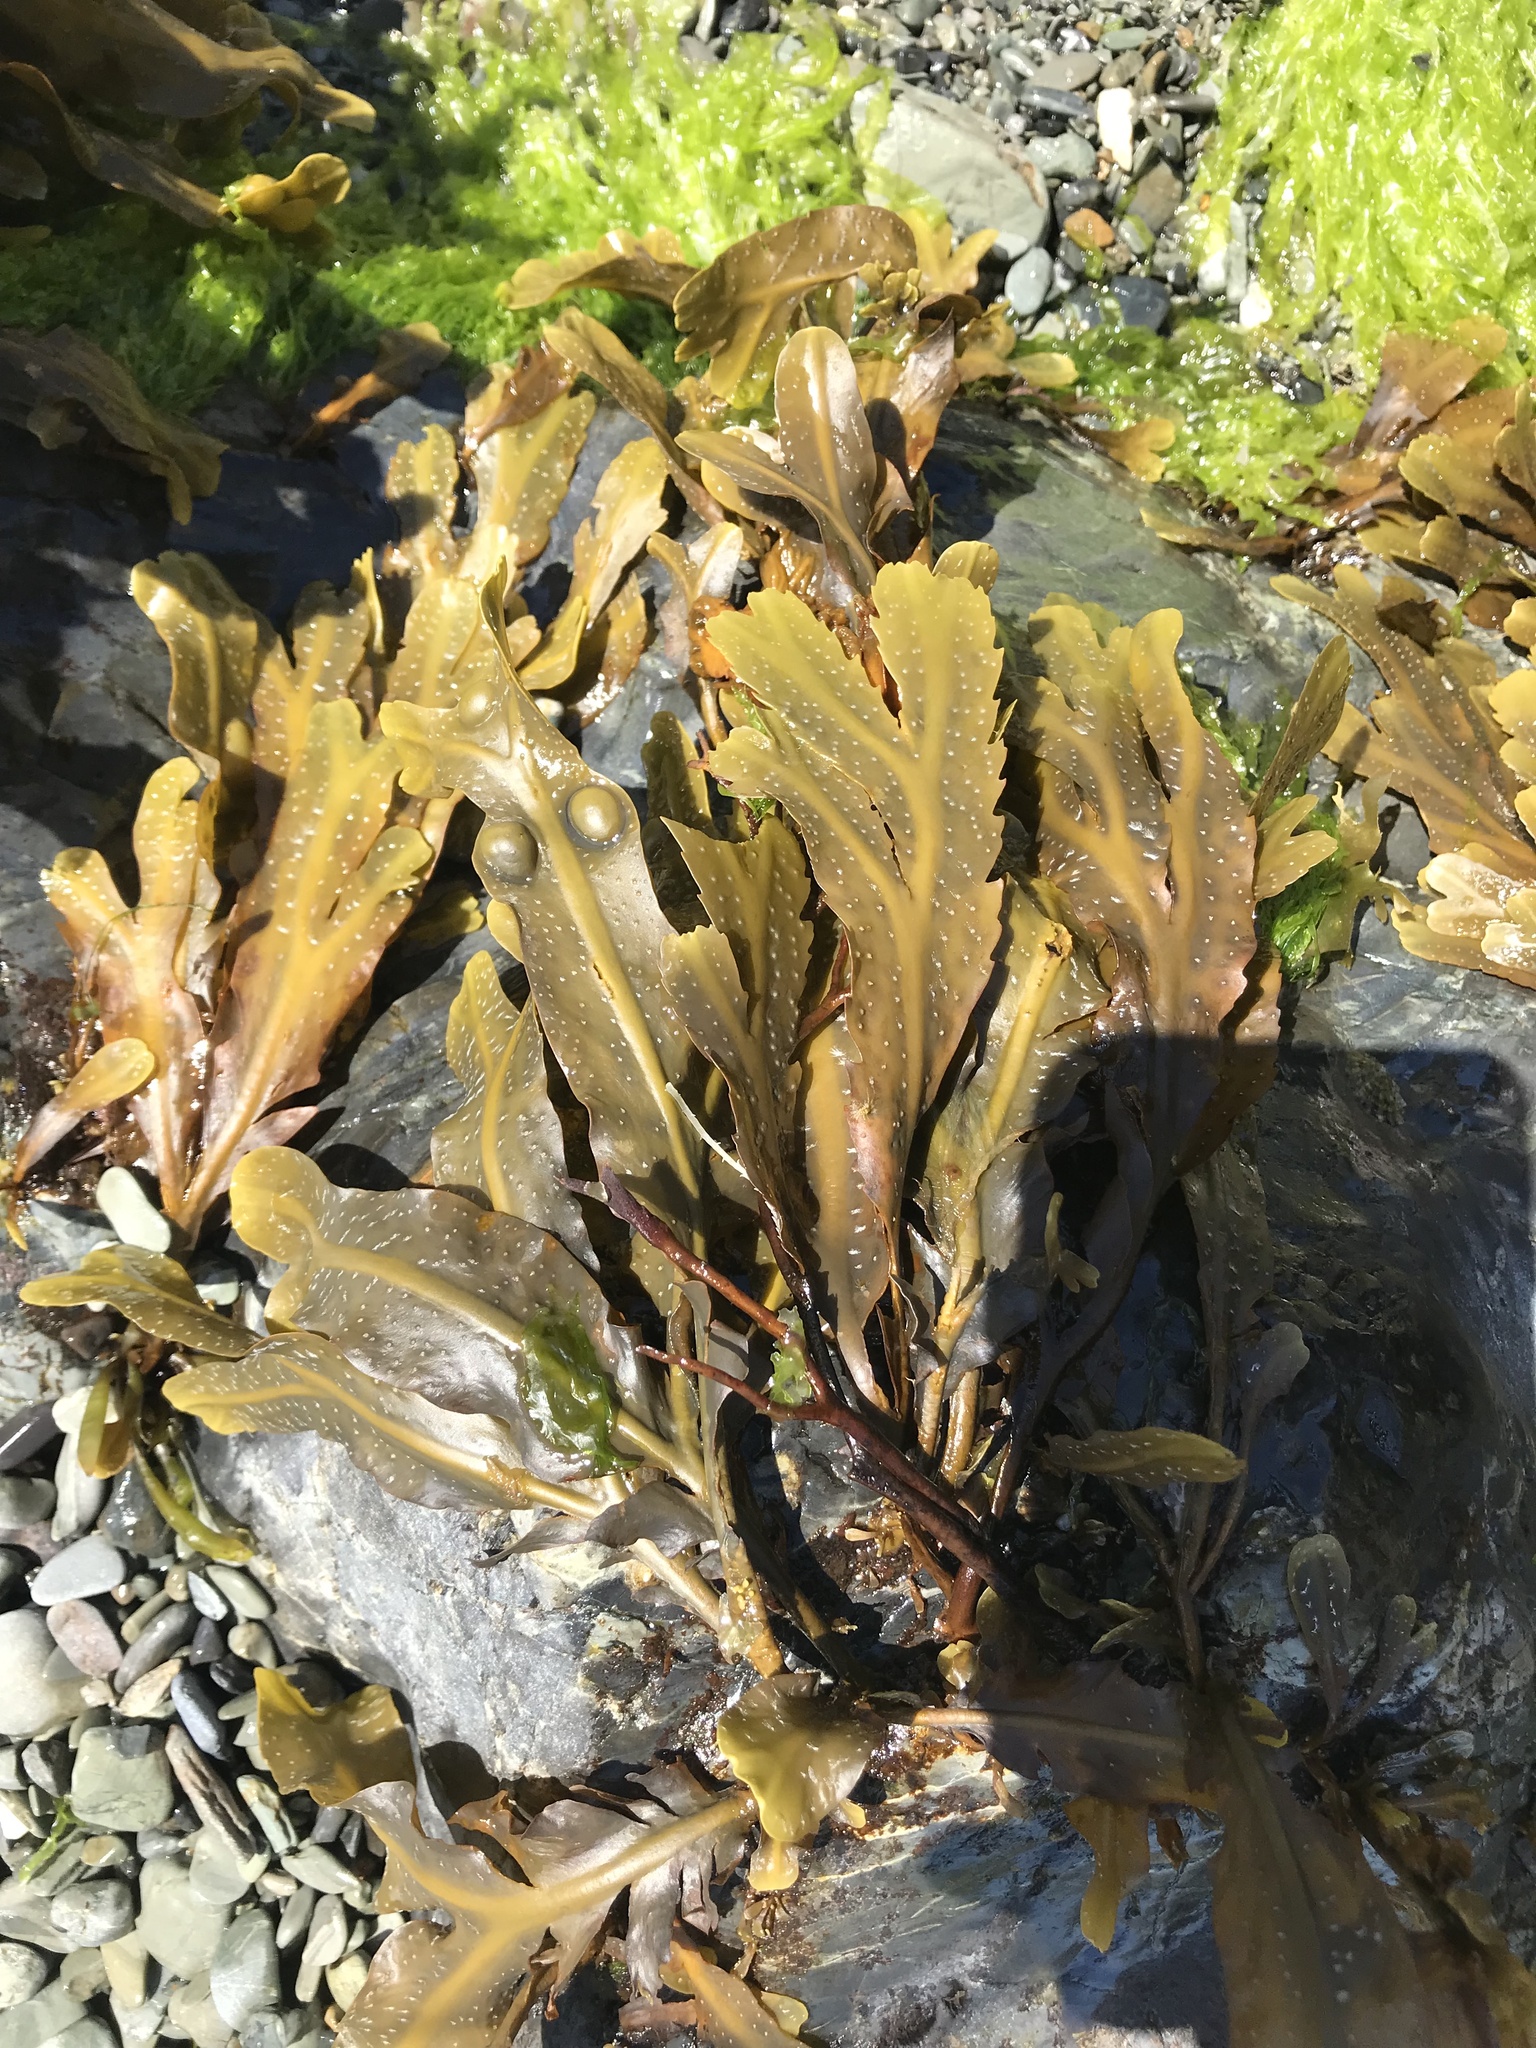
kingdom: Chromista
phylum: Ochrophyta
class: Phaeophyceae
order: Fucales
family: Fucaceae
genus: Fucus
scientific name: Fucus serratus
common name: Toothed wrack
